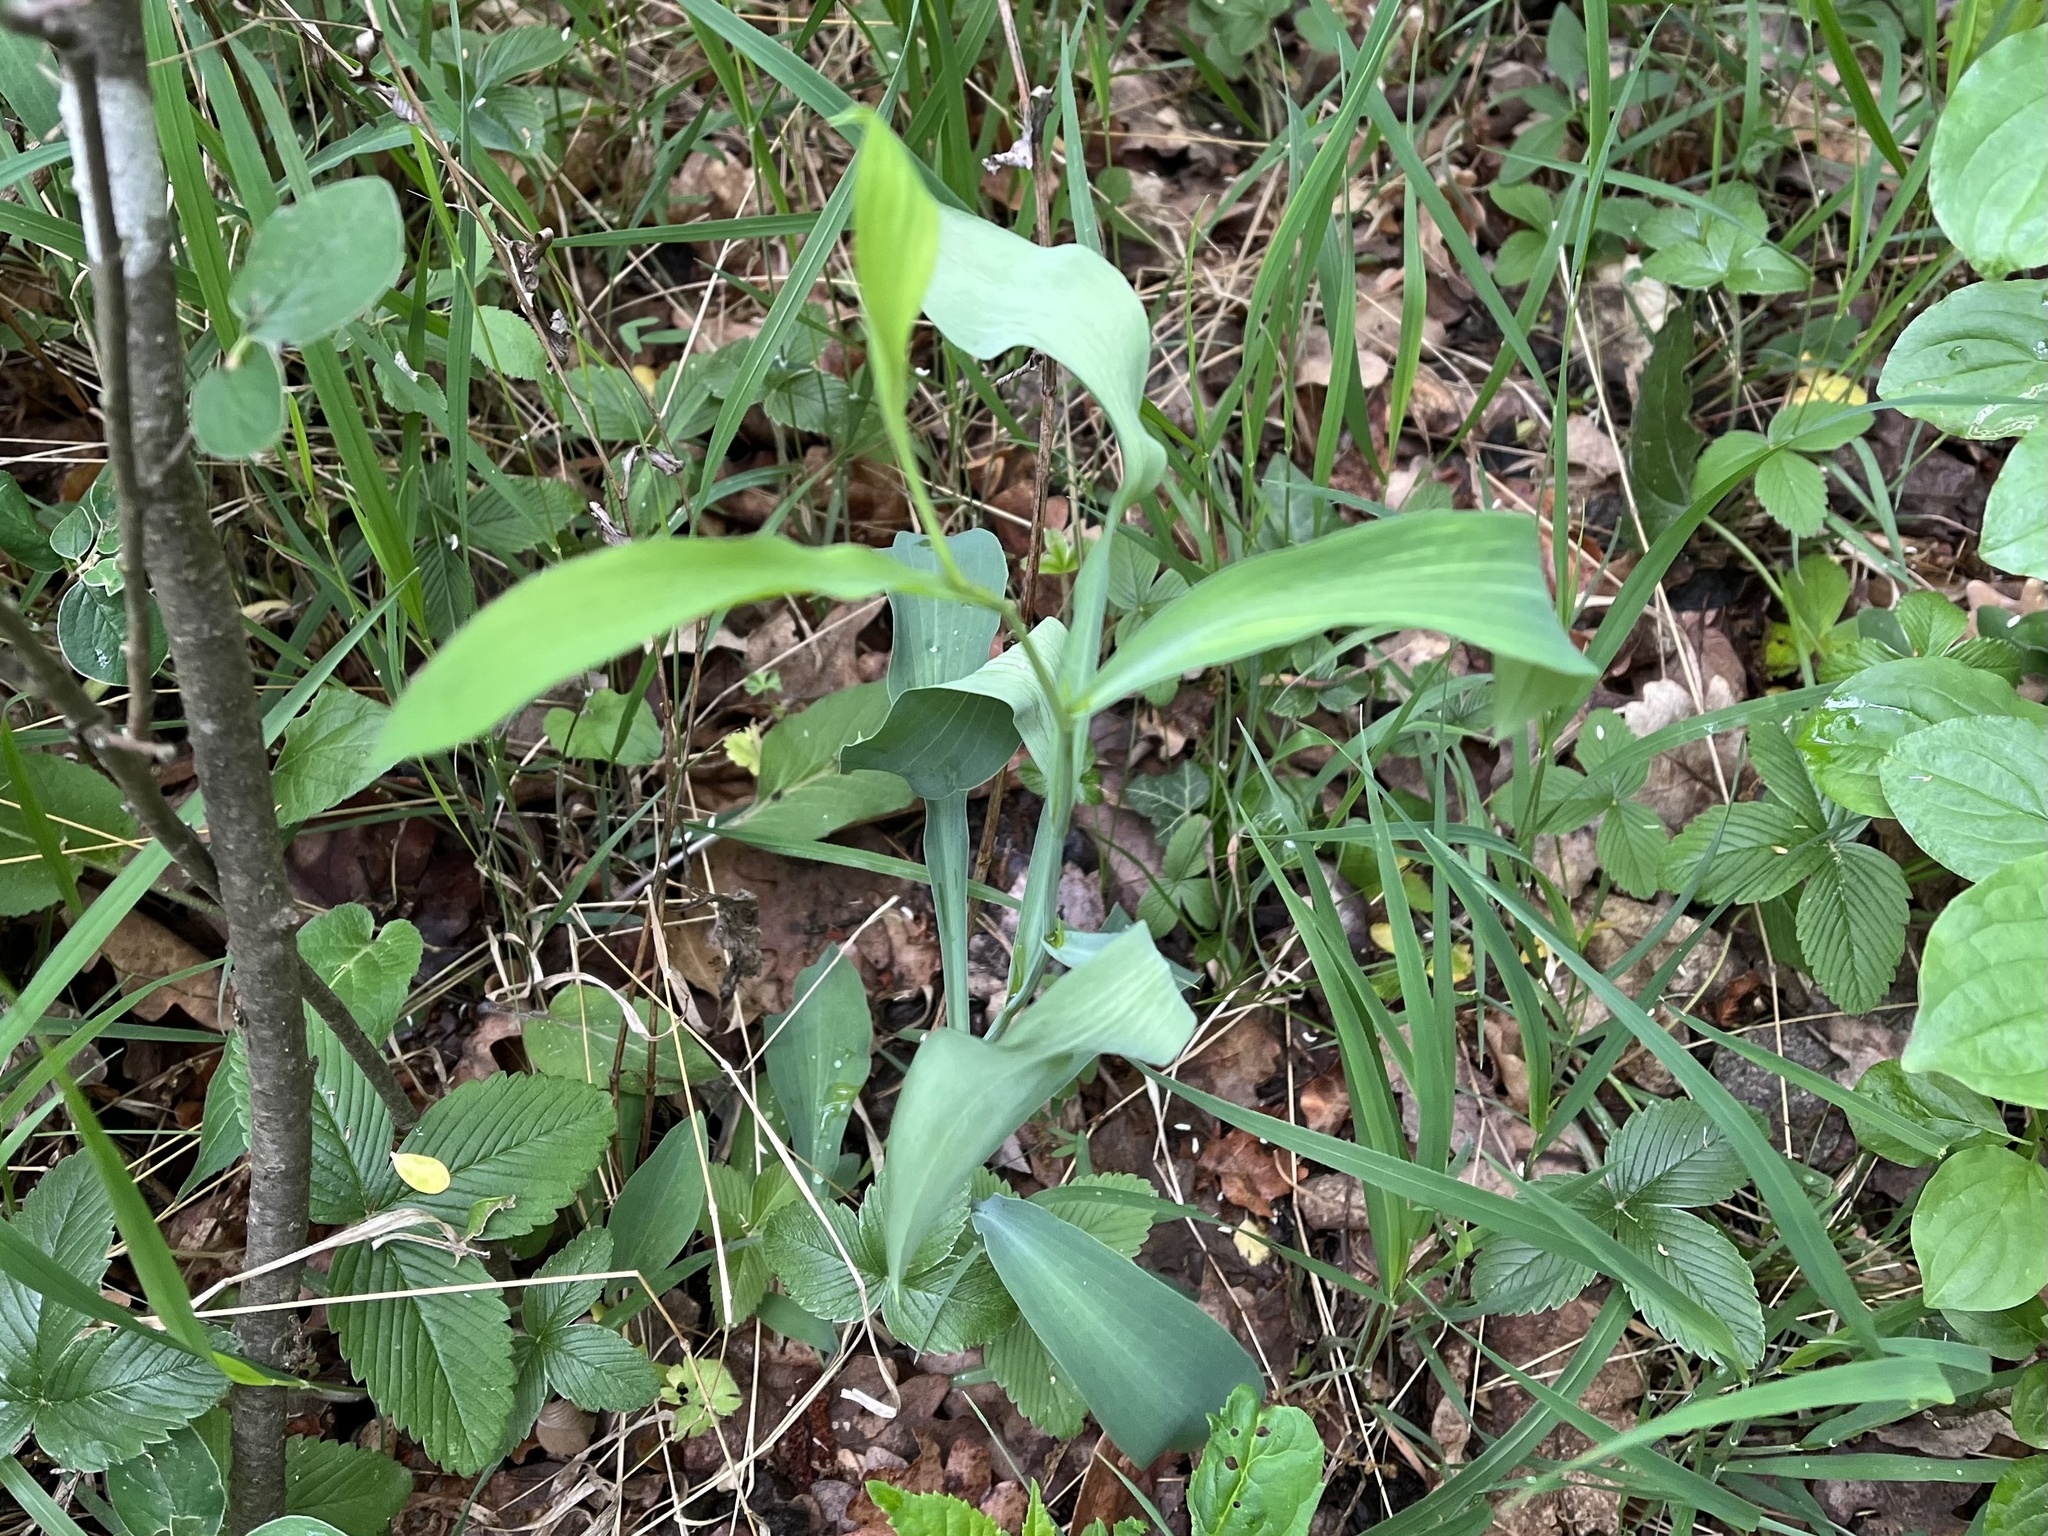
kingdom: Plantae
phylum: Tracheophyta
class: Magnoliopsida
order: Apiales
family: Apiaceae
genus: Bupleurum
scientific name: Bupleurum falcatum
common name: Sickle-leaved hare's-ear
